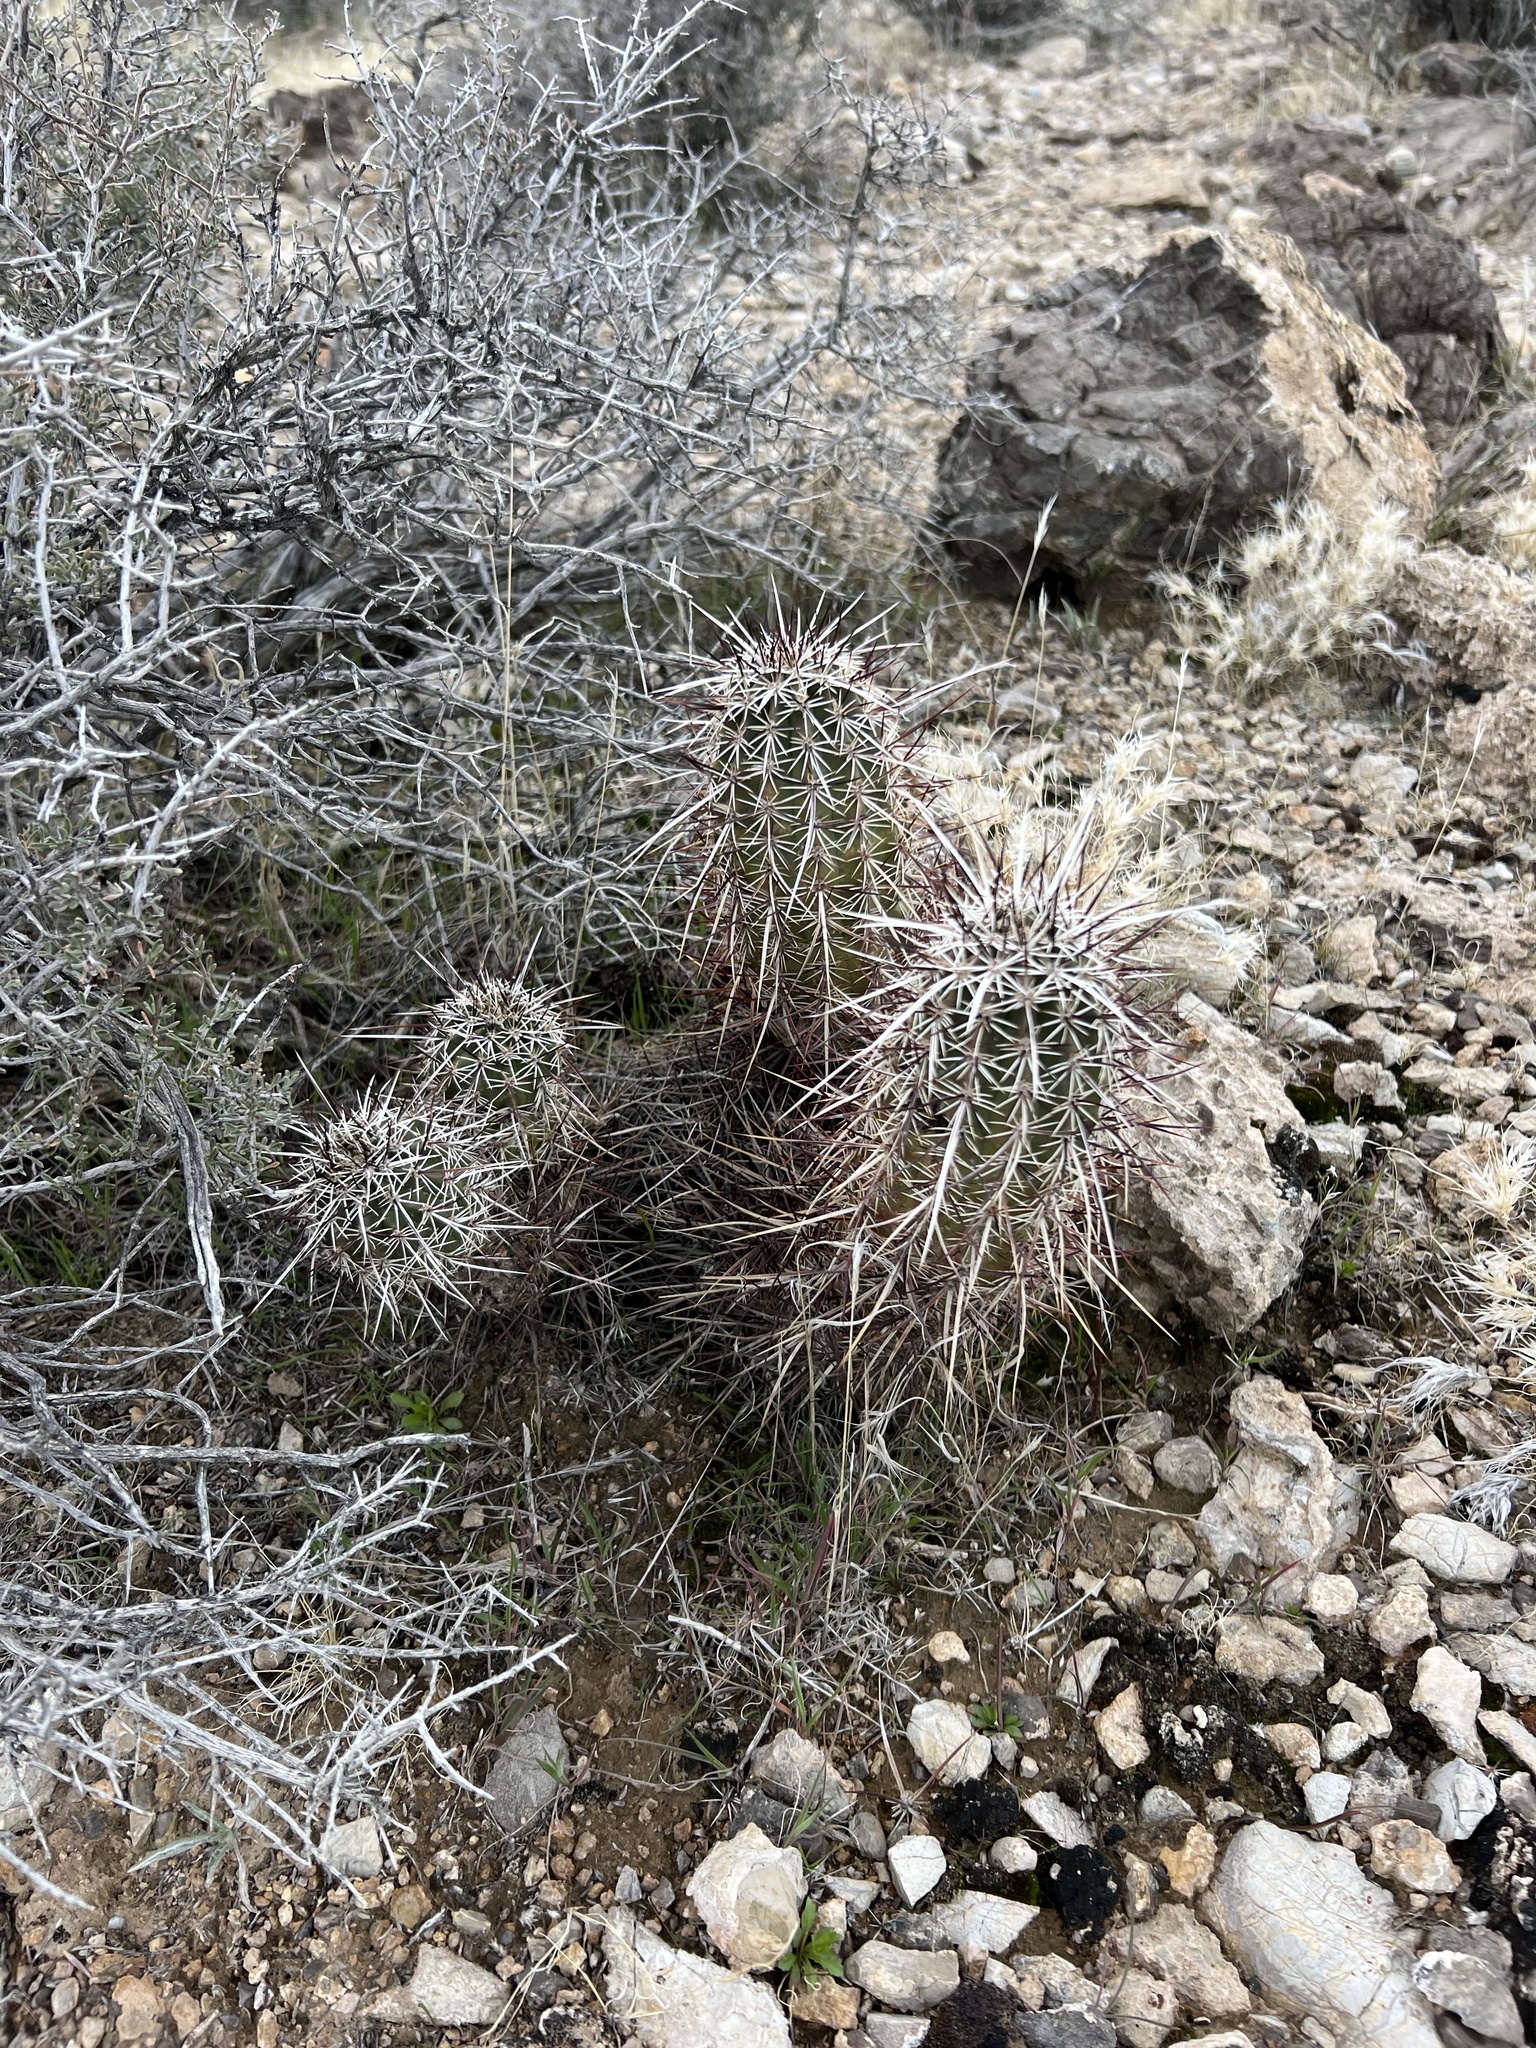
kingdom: Plantae
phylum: Tracheophyta
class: Magnoliopsida
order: Caryophyllales
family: Cactaceae
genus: Echinocereus
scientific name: Echinocereus engelmannii
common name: Engelmann's hedgehog cactus
